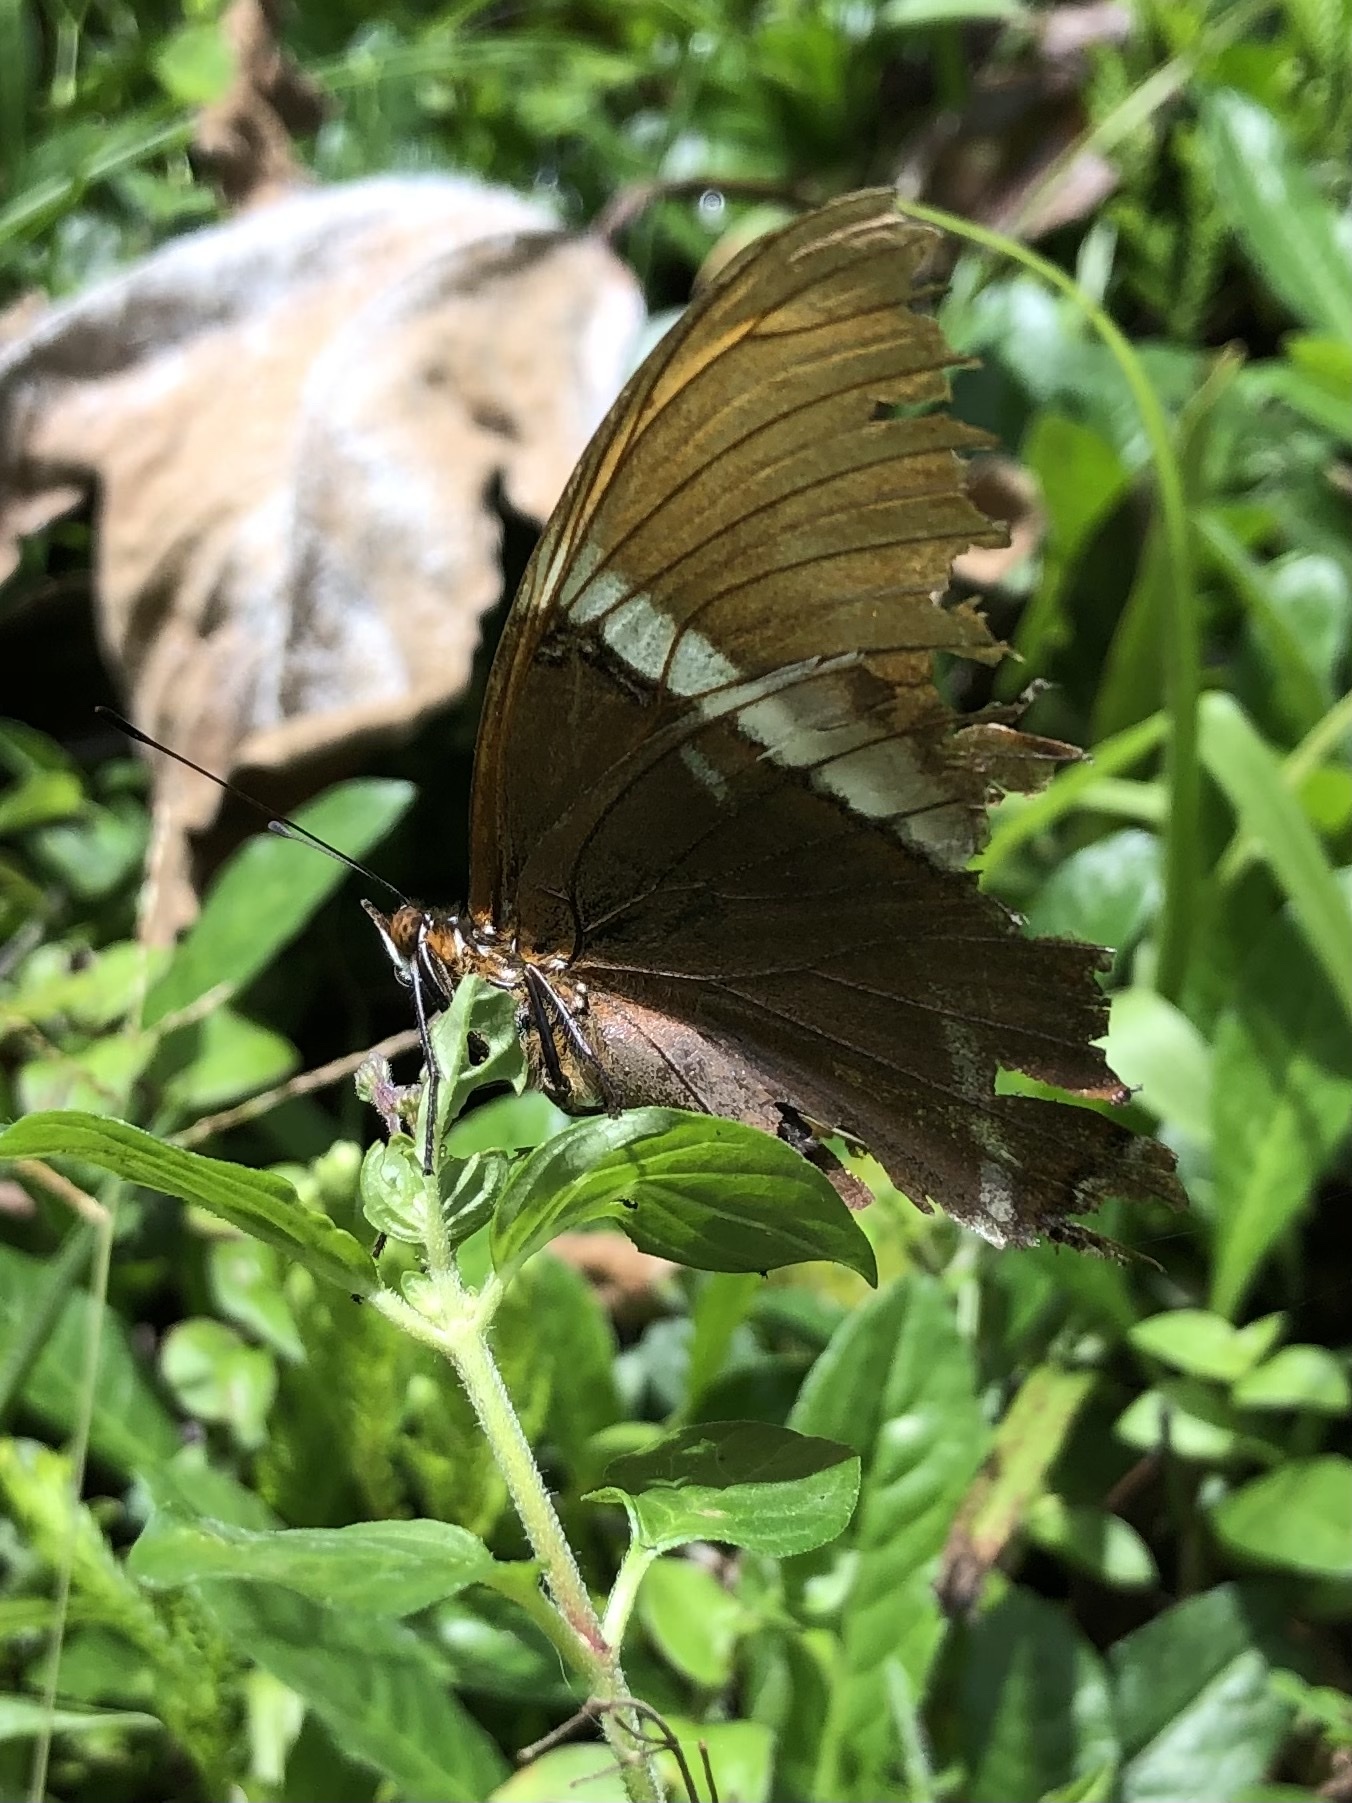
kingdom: Animalia
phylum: Arthropoda
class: Insecta
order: Lepidoptera
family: Nymphalidae
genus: Siproeta
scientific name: Siproeta epaphus
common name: Rusty-tipped page
